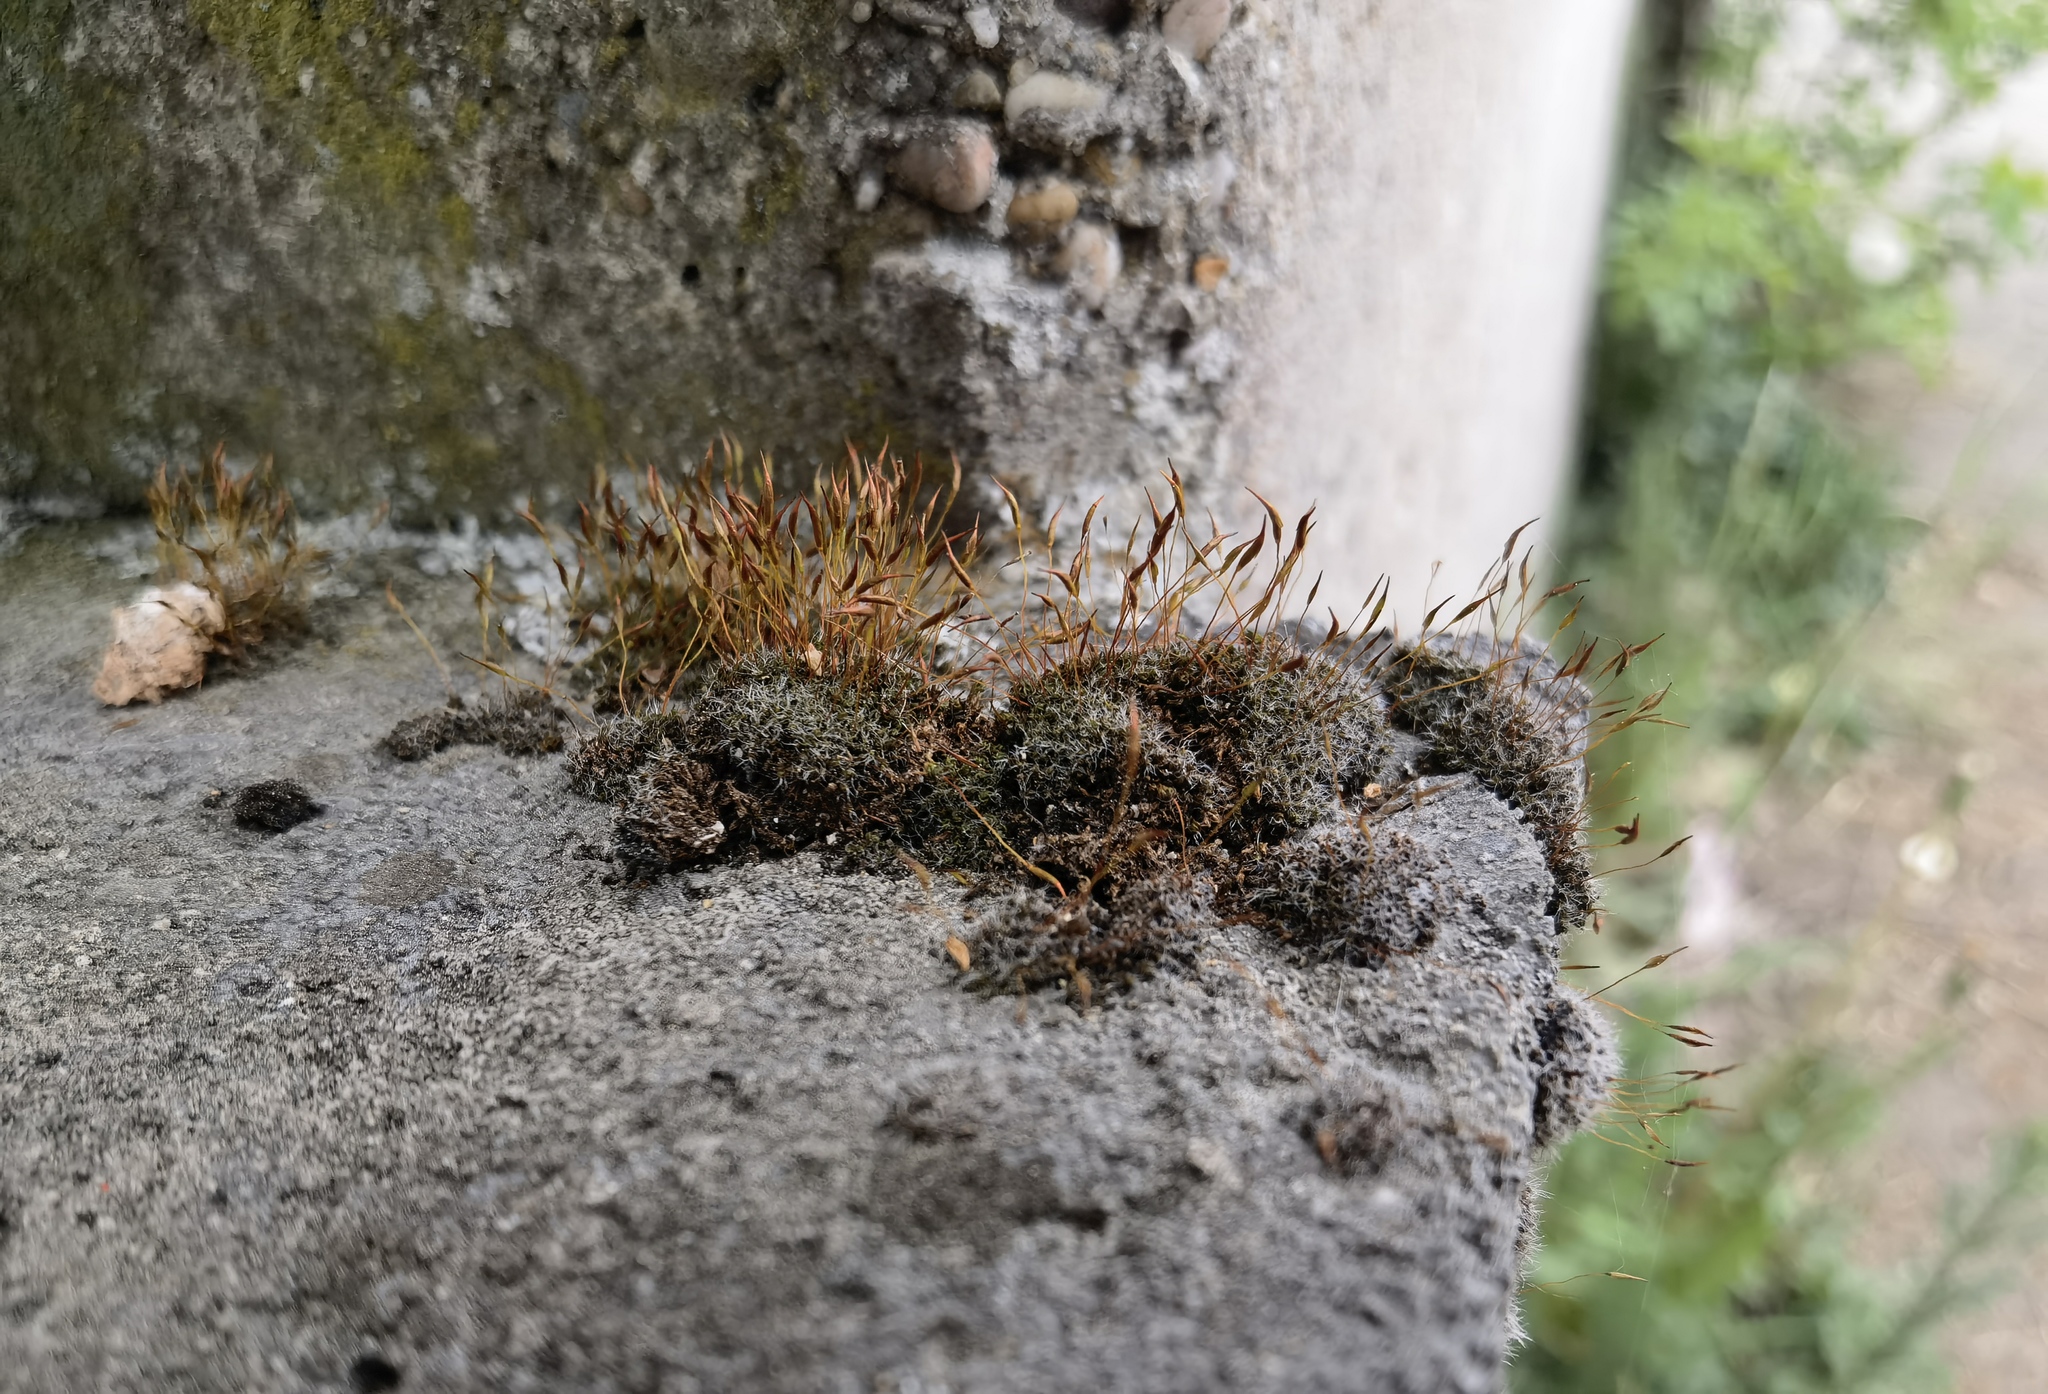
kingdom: Plantae
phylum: Bryophyta
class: Bryopsida
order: Pottiales
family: Pottiaceae
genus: Tortula
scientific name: Tortula muralis
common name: Wall screw-moss
